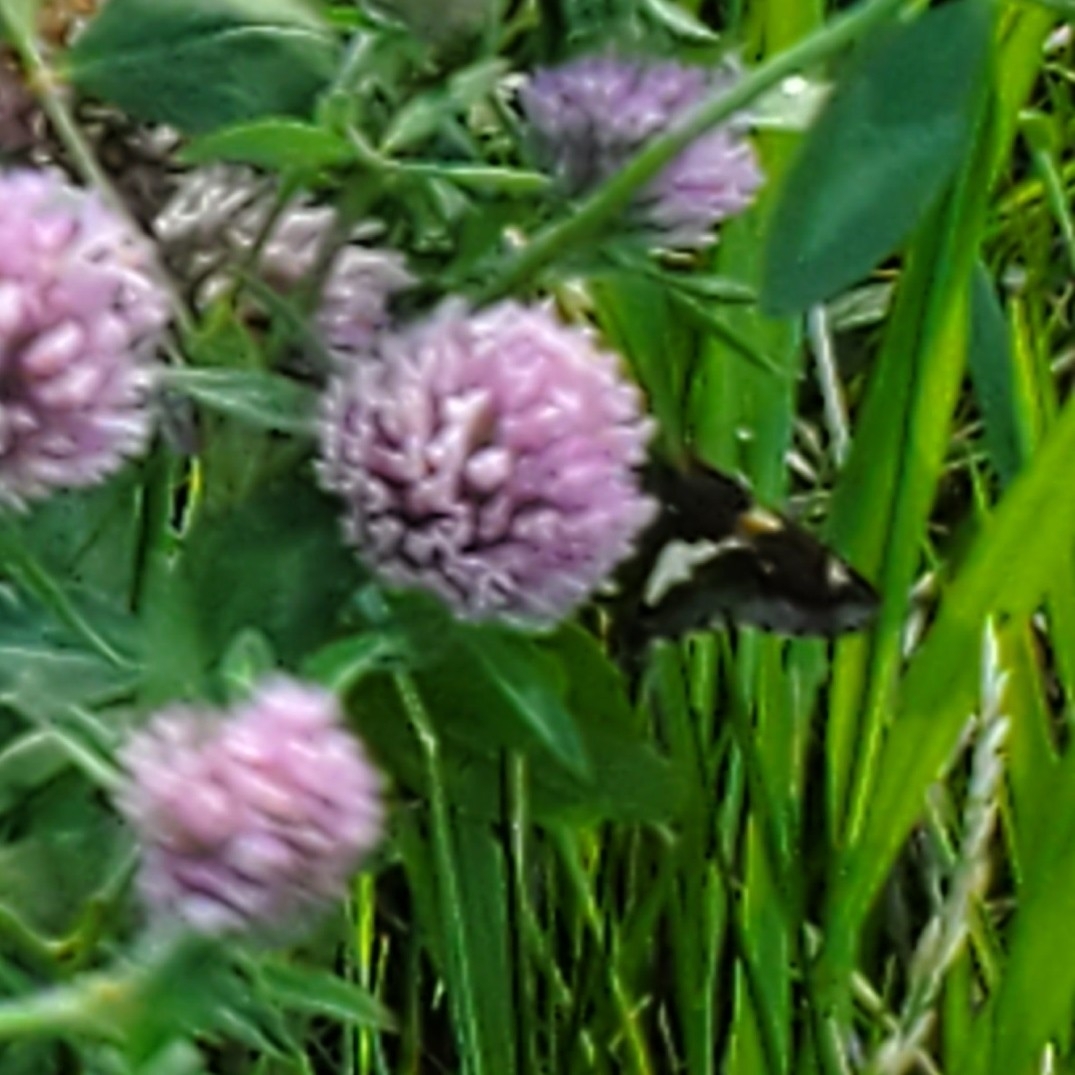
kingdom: Animalia
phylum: Arthropoda
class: Insecta
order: Lepidoptera
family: Hesperiidae
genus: Epargyreus
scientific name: Epargyreus clarus
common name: Silver-spotted skipper
